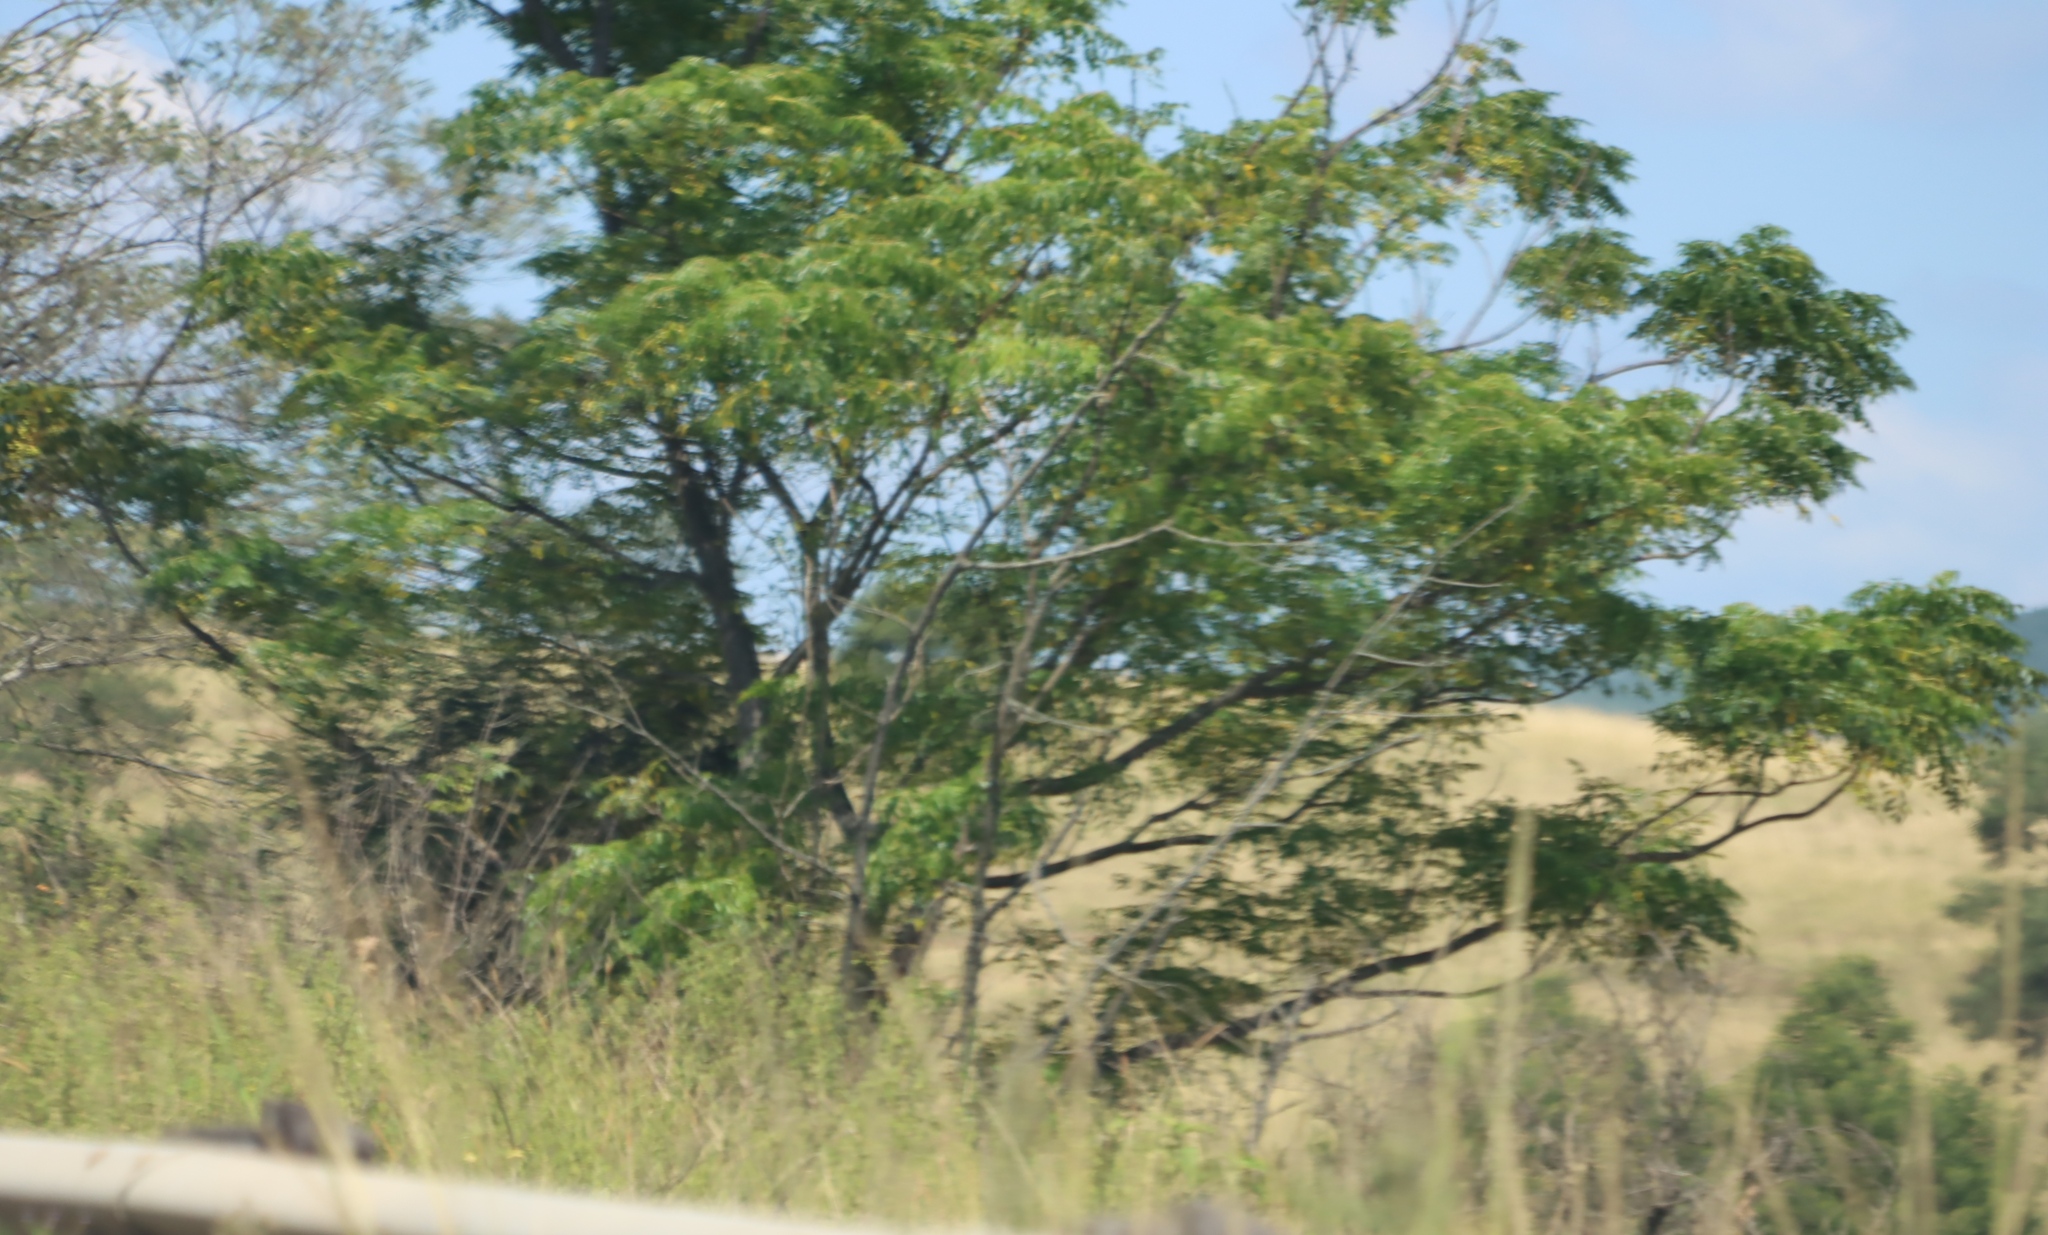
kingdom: Plantae
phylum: Tracheophyta
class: Magnoliopsida
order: Sapindales
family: Meliaceae
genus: Melia
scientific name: Melia azedarach
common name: Chinaberrytree
